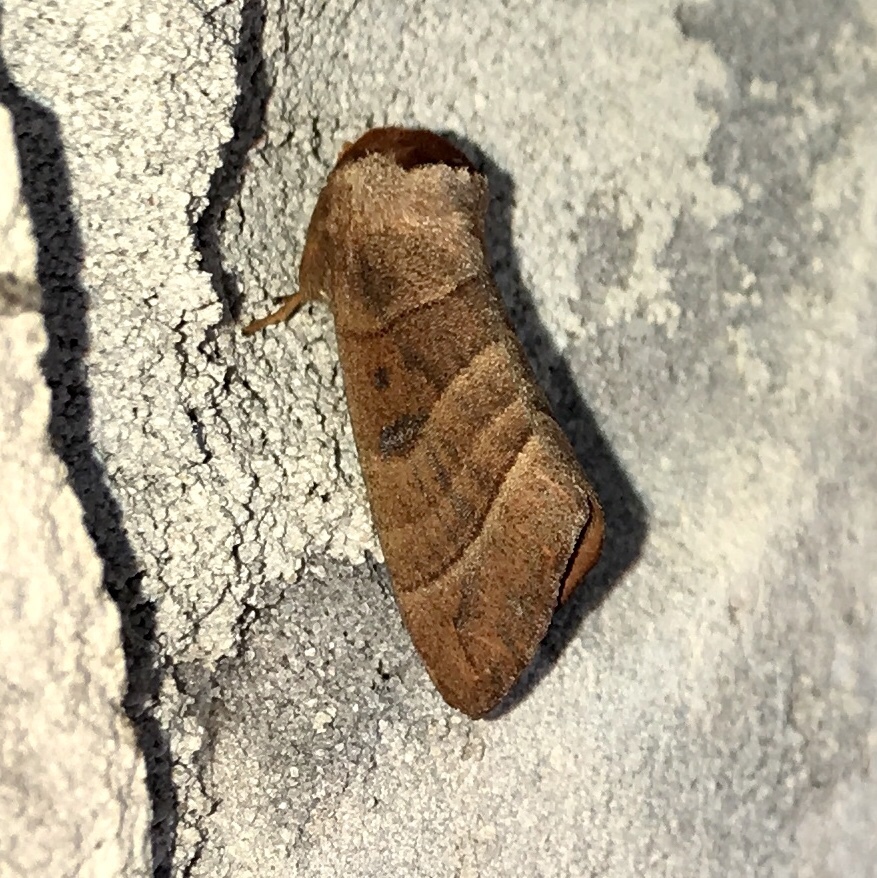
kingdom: Animalia
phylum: Arthropoda
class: Insecta
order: Lepidoptera
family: Notodontidae
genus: Datana
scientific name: Datana integerrima
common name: Walnut caterpillar
